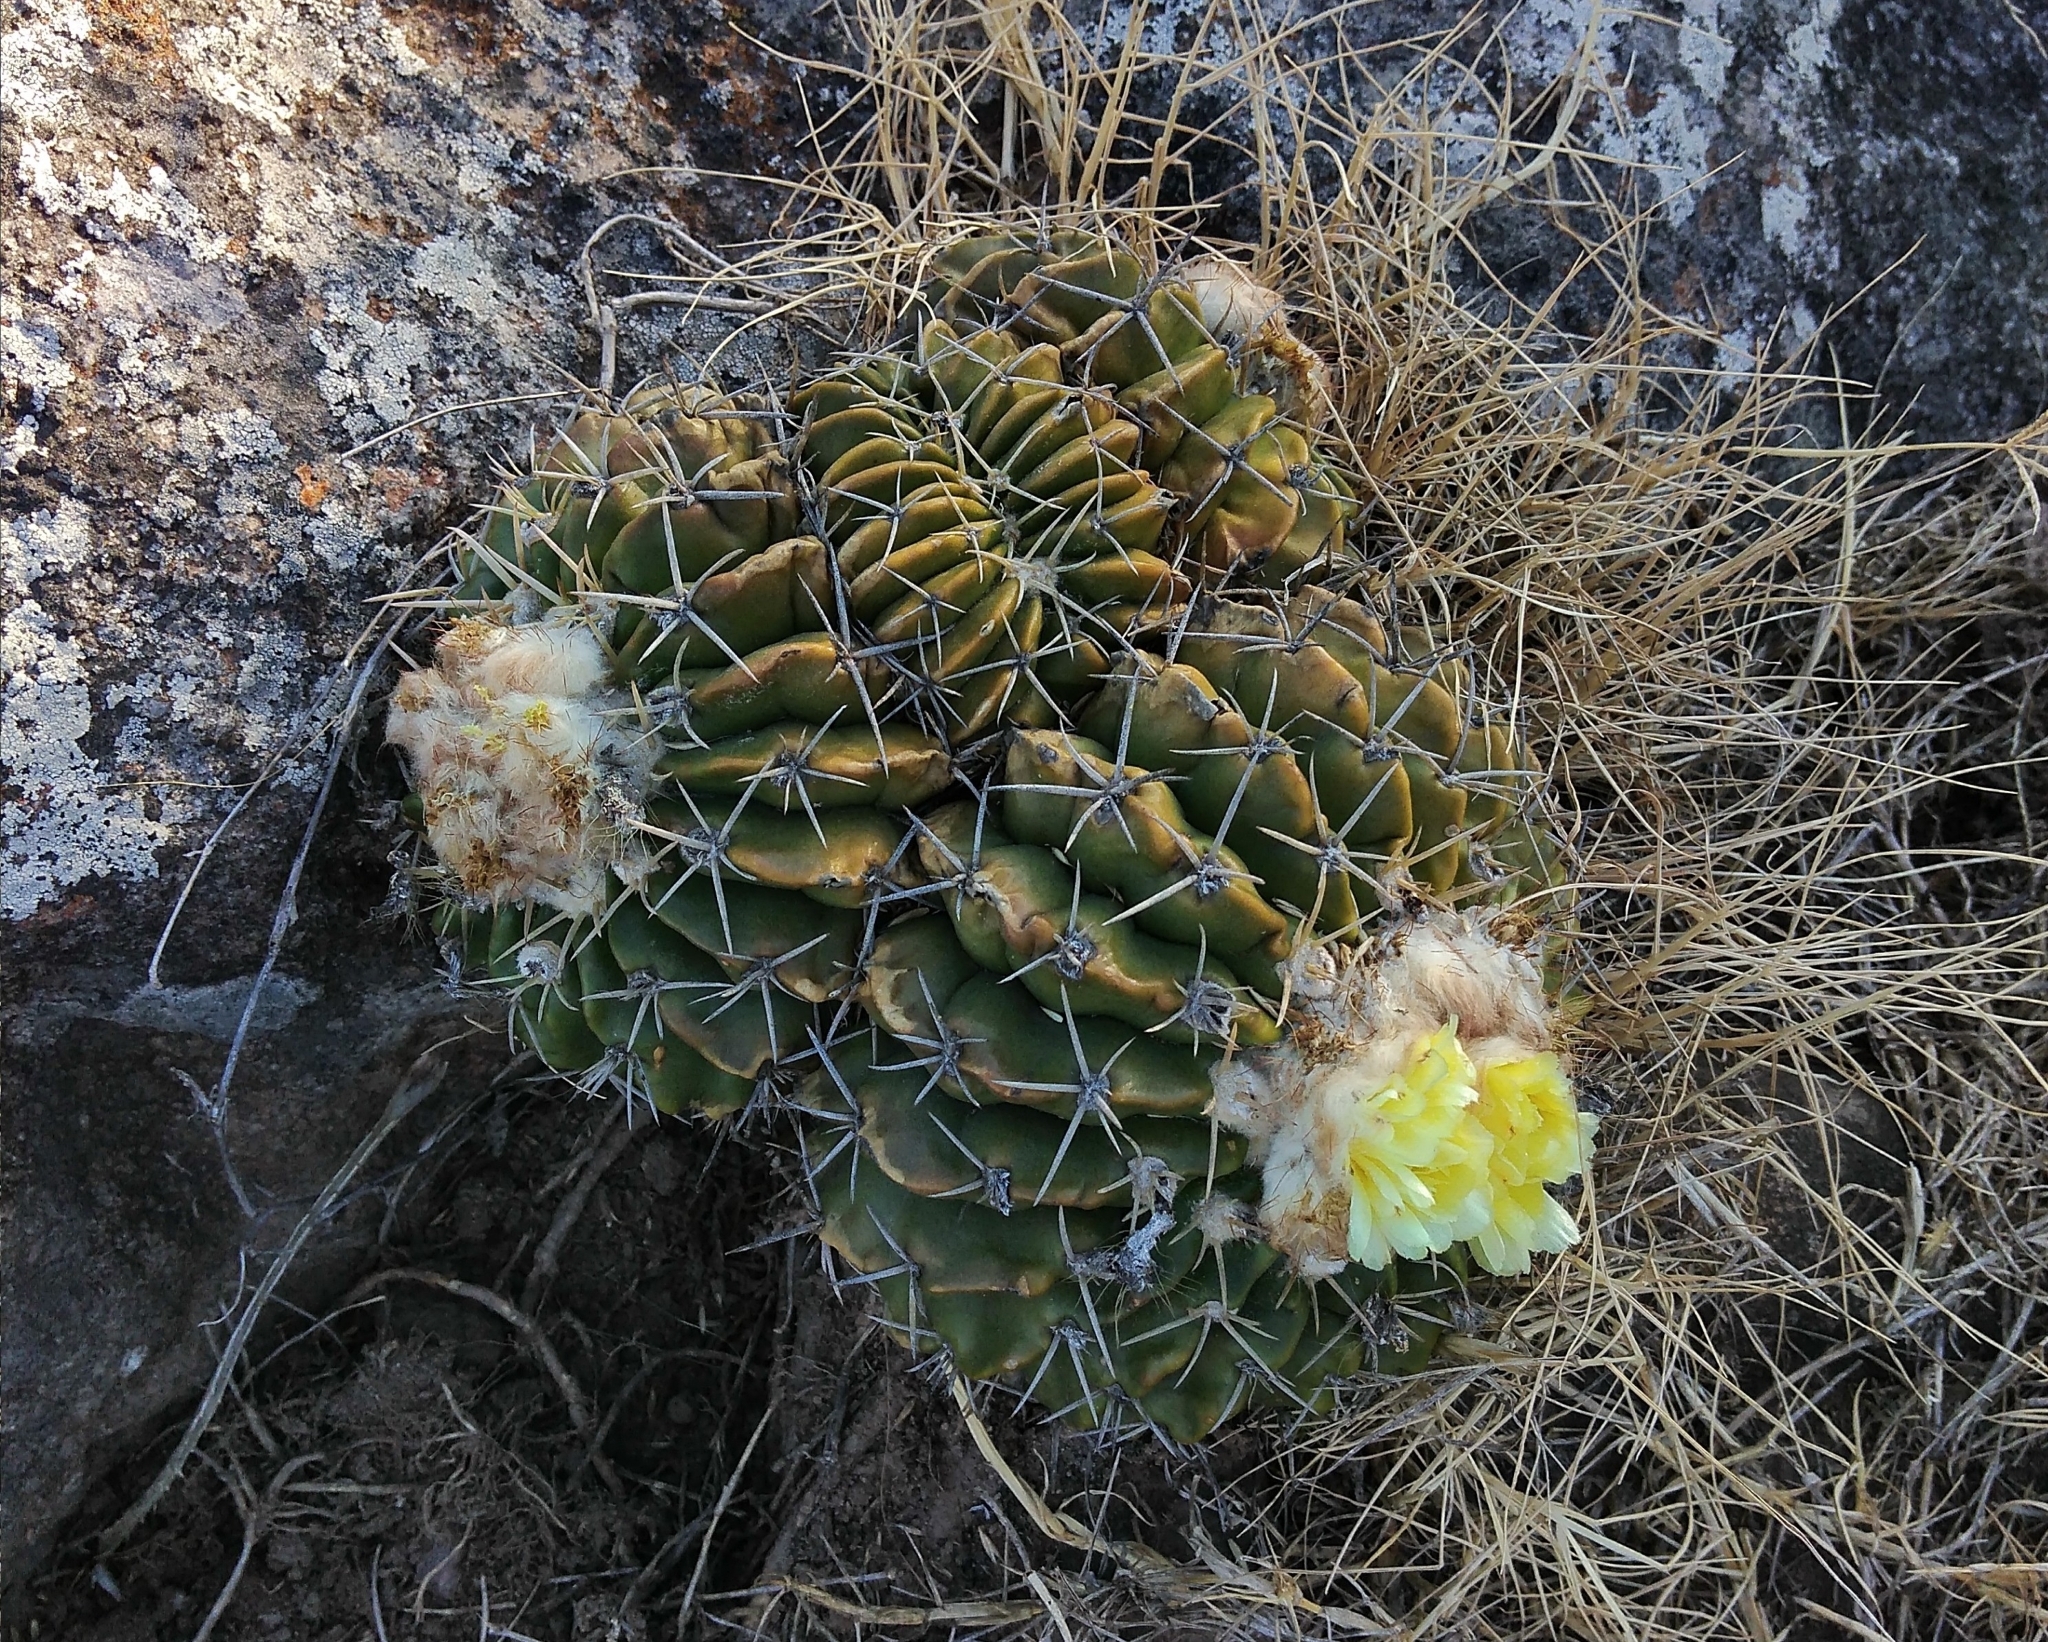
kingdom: Plantae
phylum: Tracheophyta
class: Magnoliopsida
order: Caryophyllales
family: Cactaceae
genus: Parodia
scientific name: Parodia erinacea
